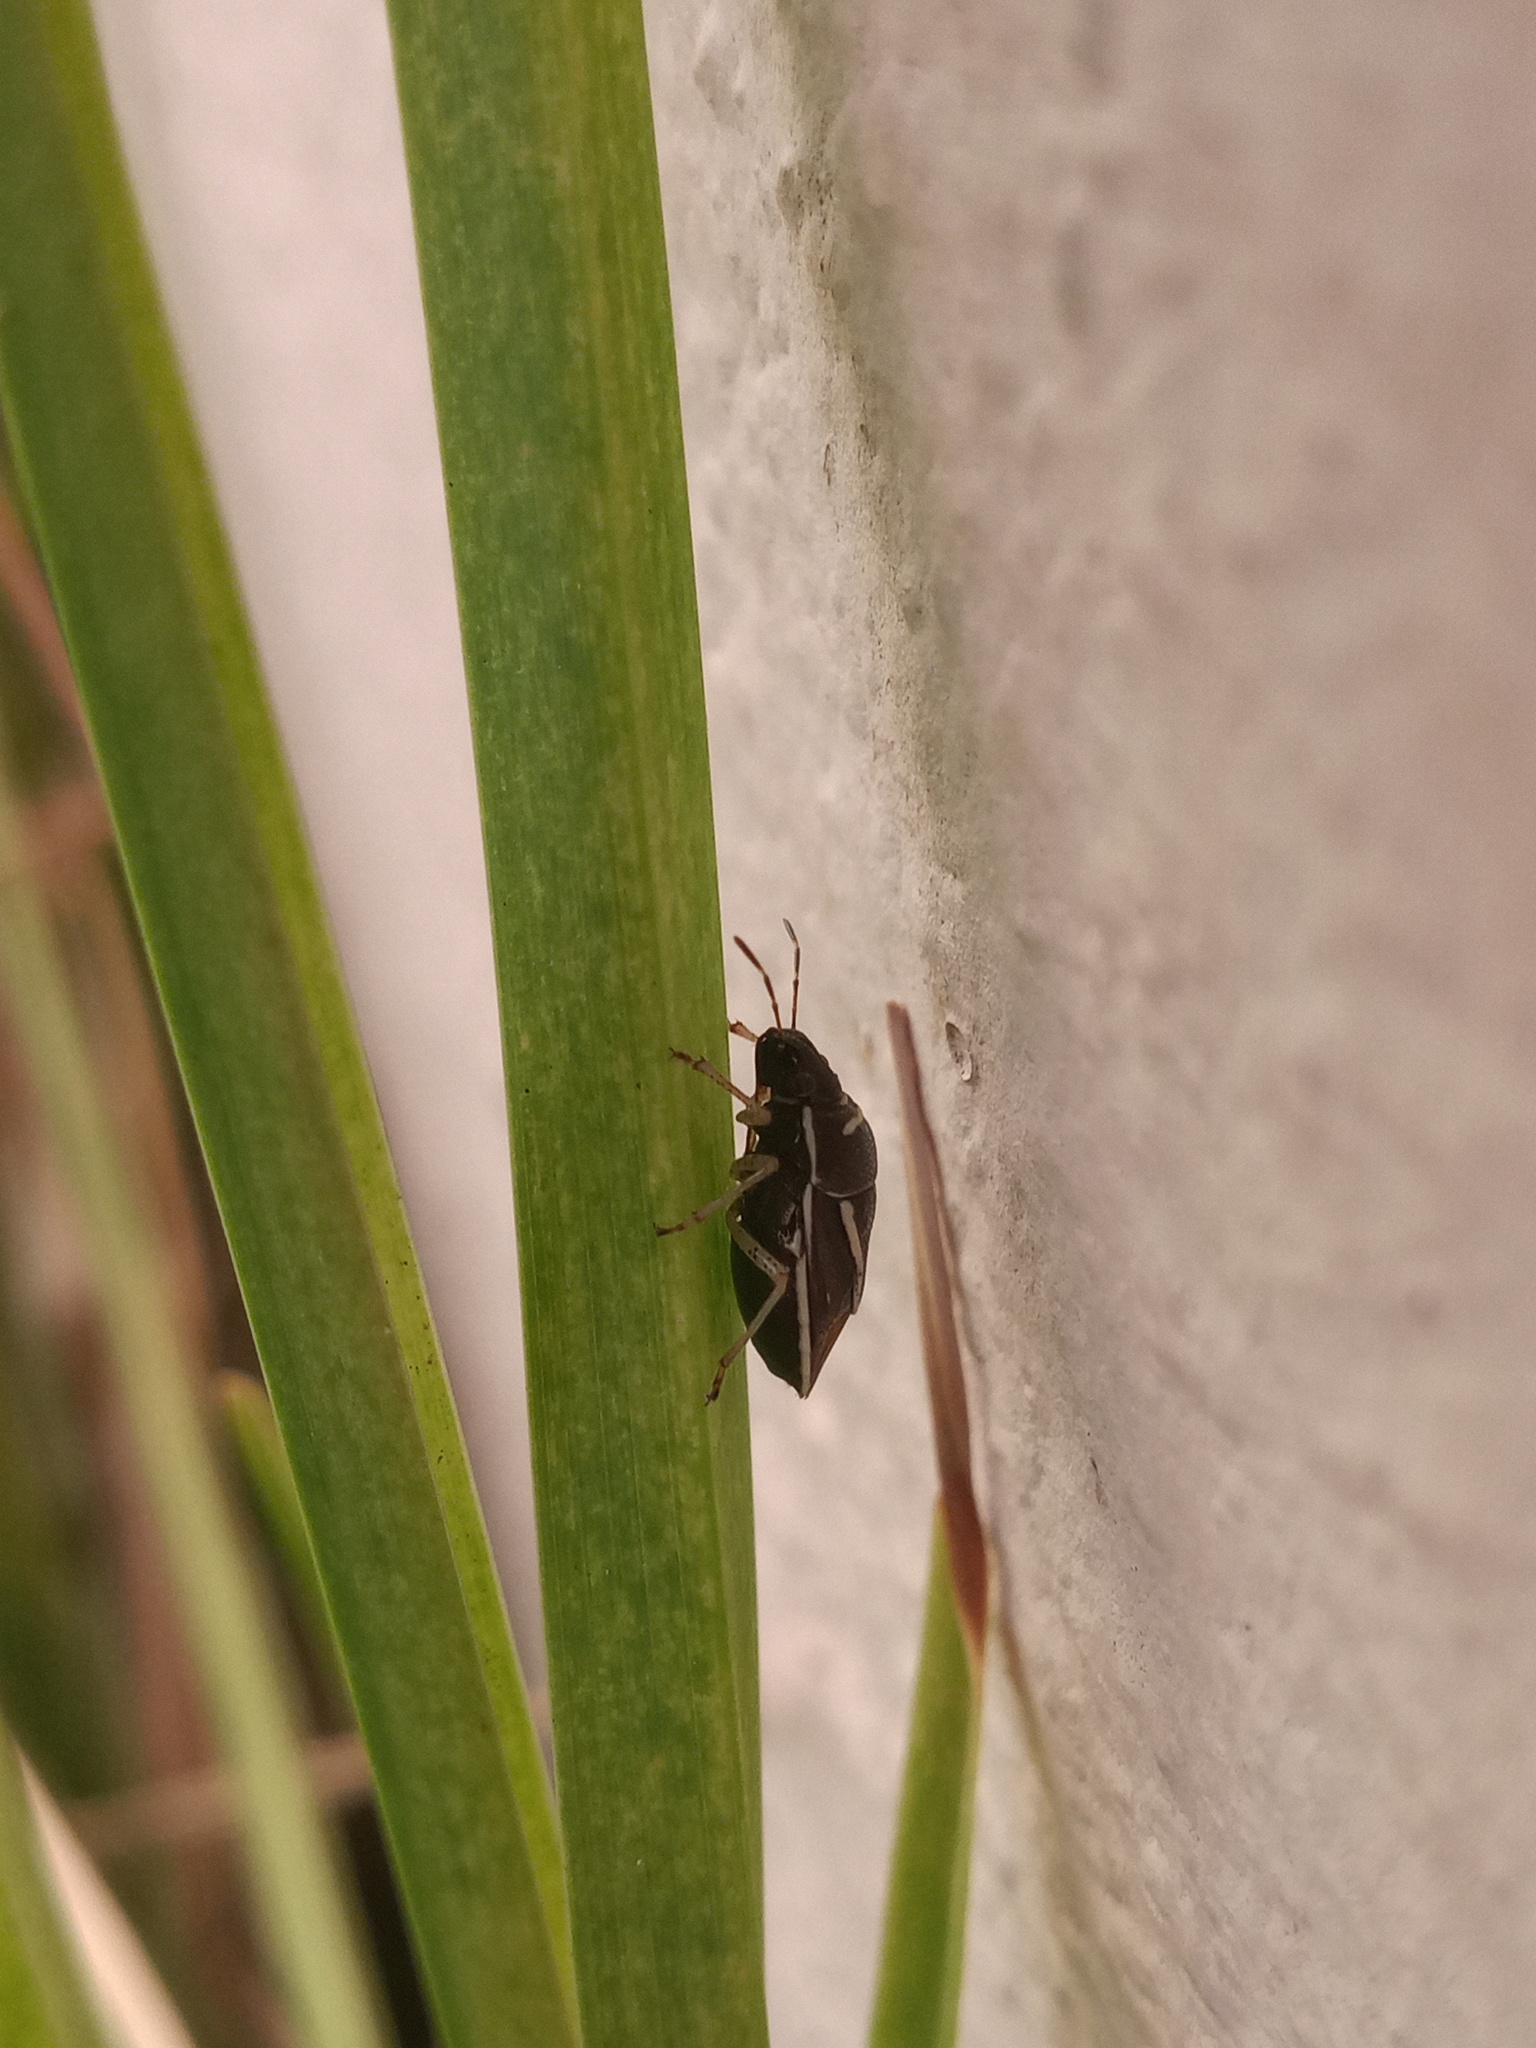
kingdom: Animalia
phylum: Arthropoda
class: Insecta
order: Hemiptera
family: Pentatomidae
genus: Mormidea
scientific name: Mormidea lugens
